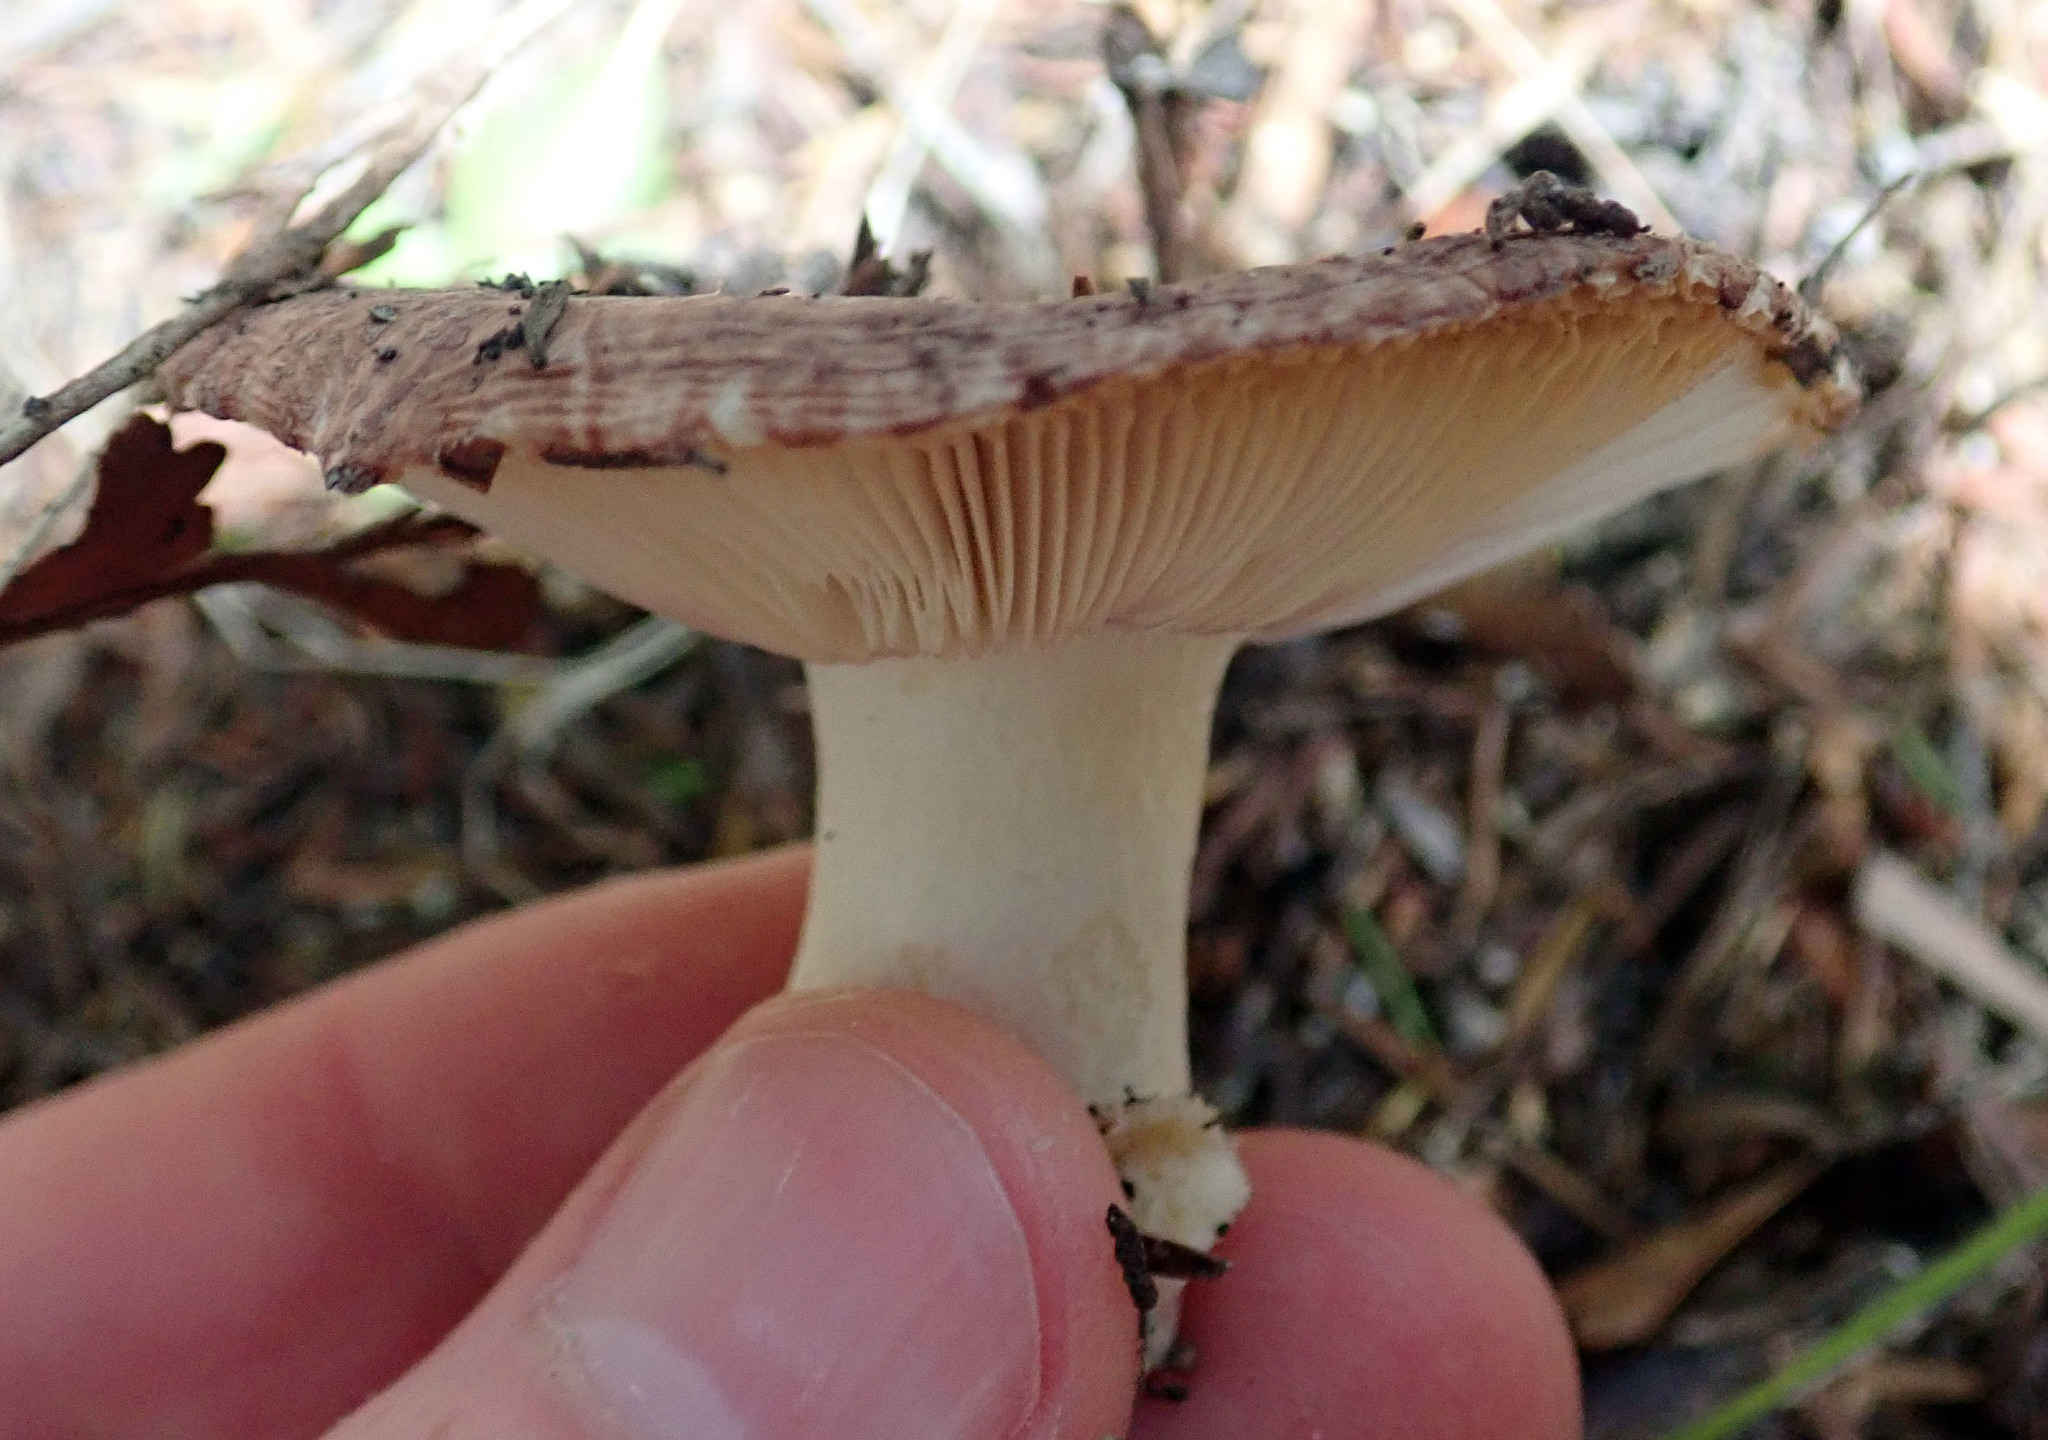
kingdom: Fungi
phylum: Basidiomycota
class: Agaricomycetes
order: Russulales
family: Russulaceae
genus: Russula
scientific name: Russula griseoviridis
